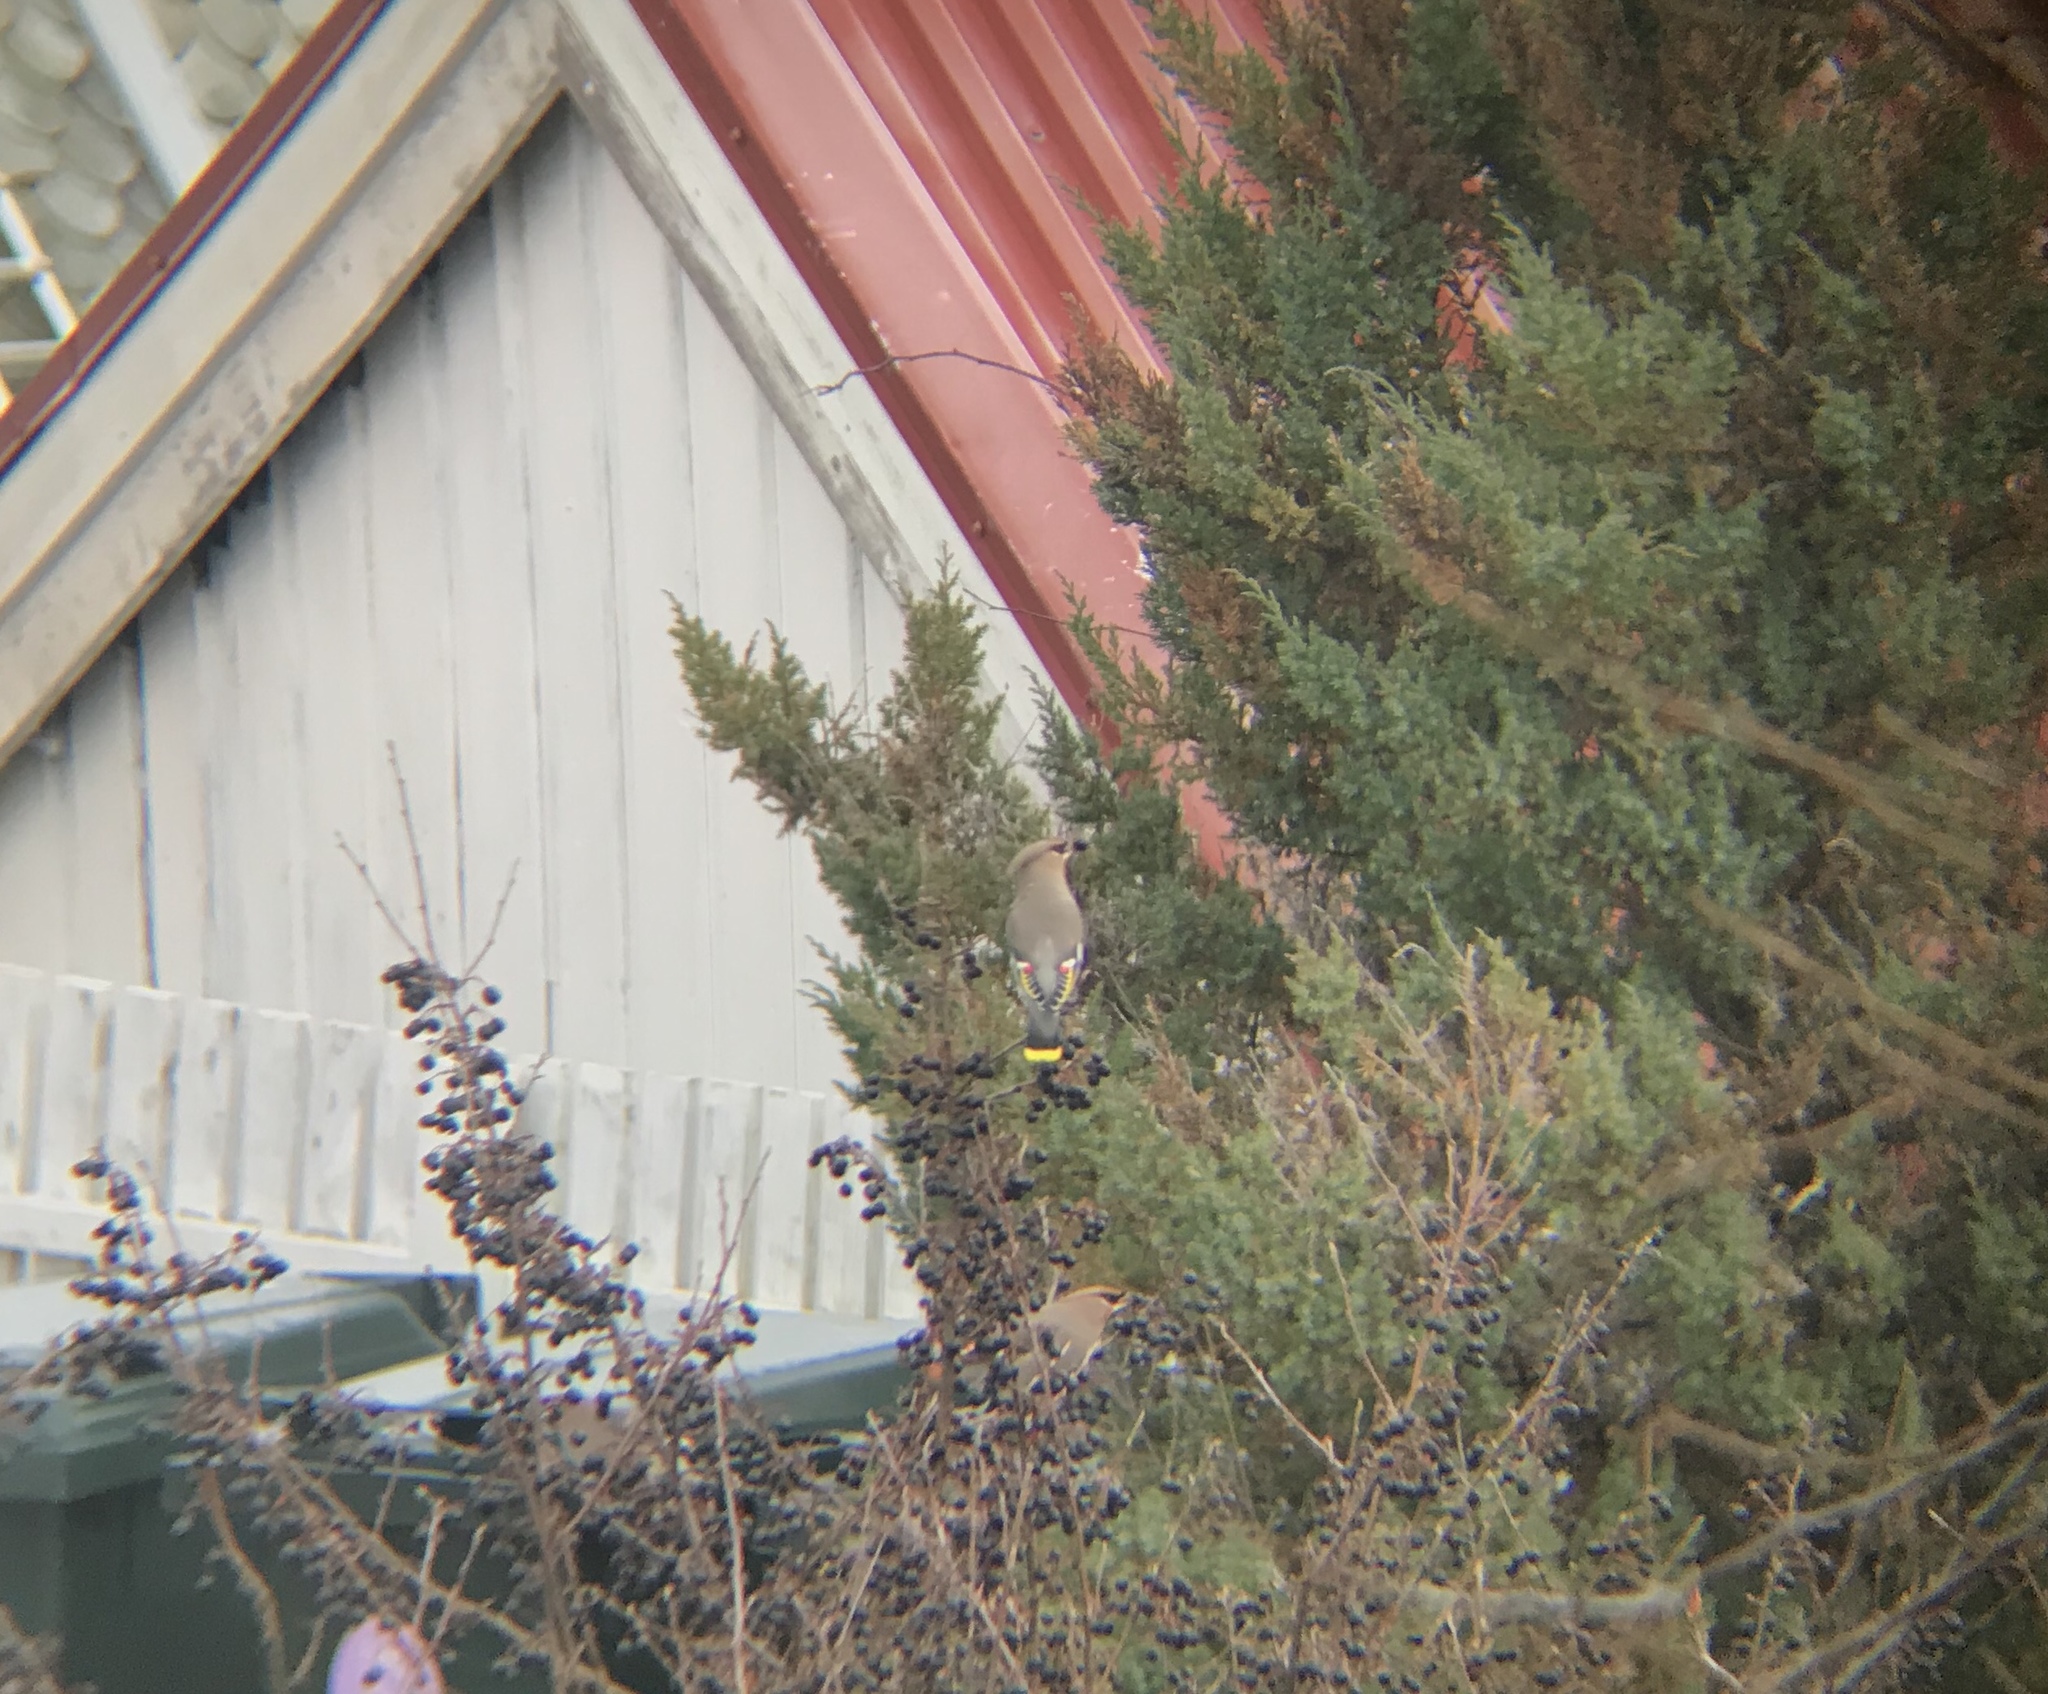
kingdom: Animalia
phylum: Chordata
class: Aves
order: Passeriformes
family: Bombycillidae
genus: Bombycilla
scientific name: Bombycilla garrulus
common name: Bohemian waxwing
